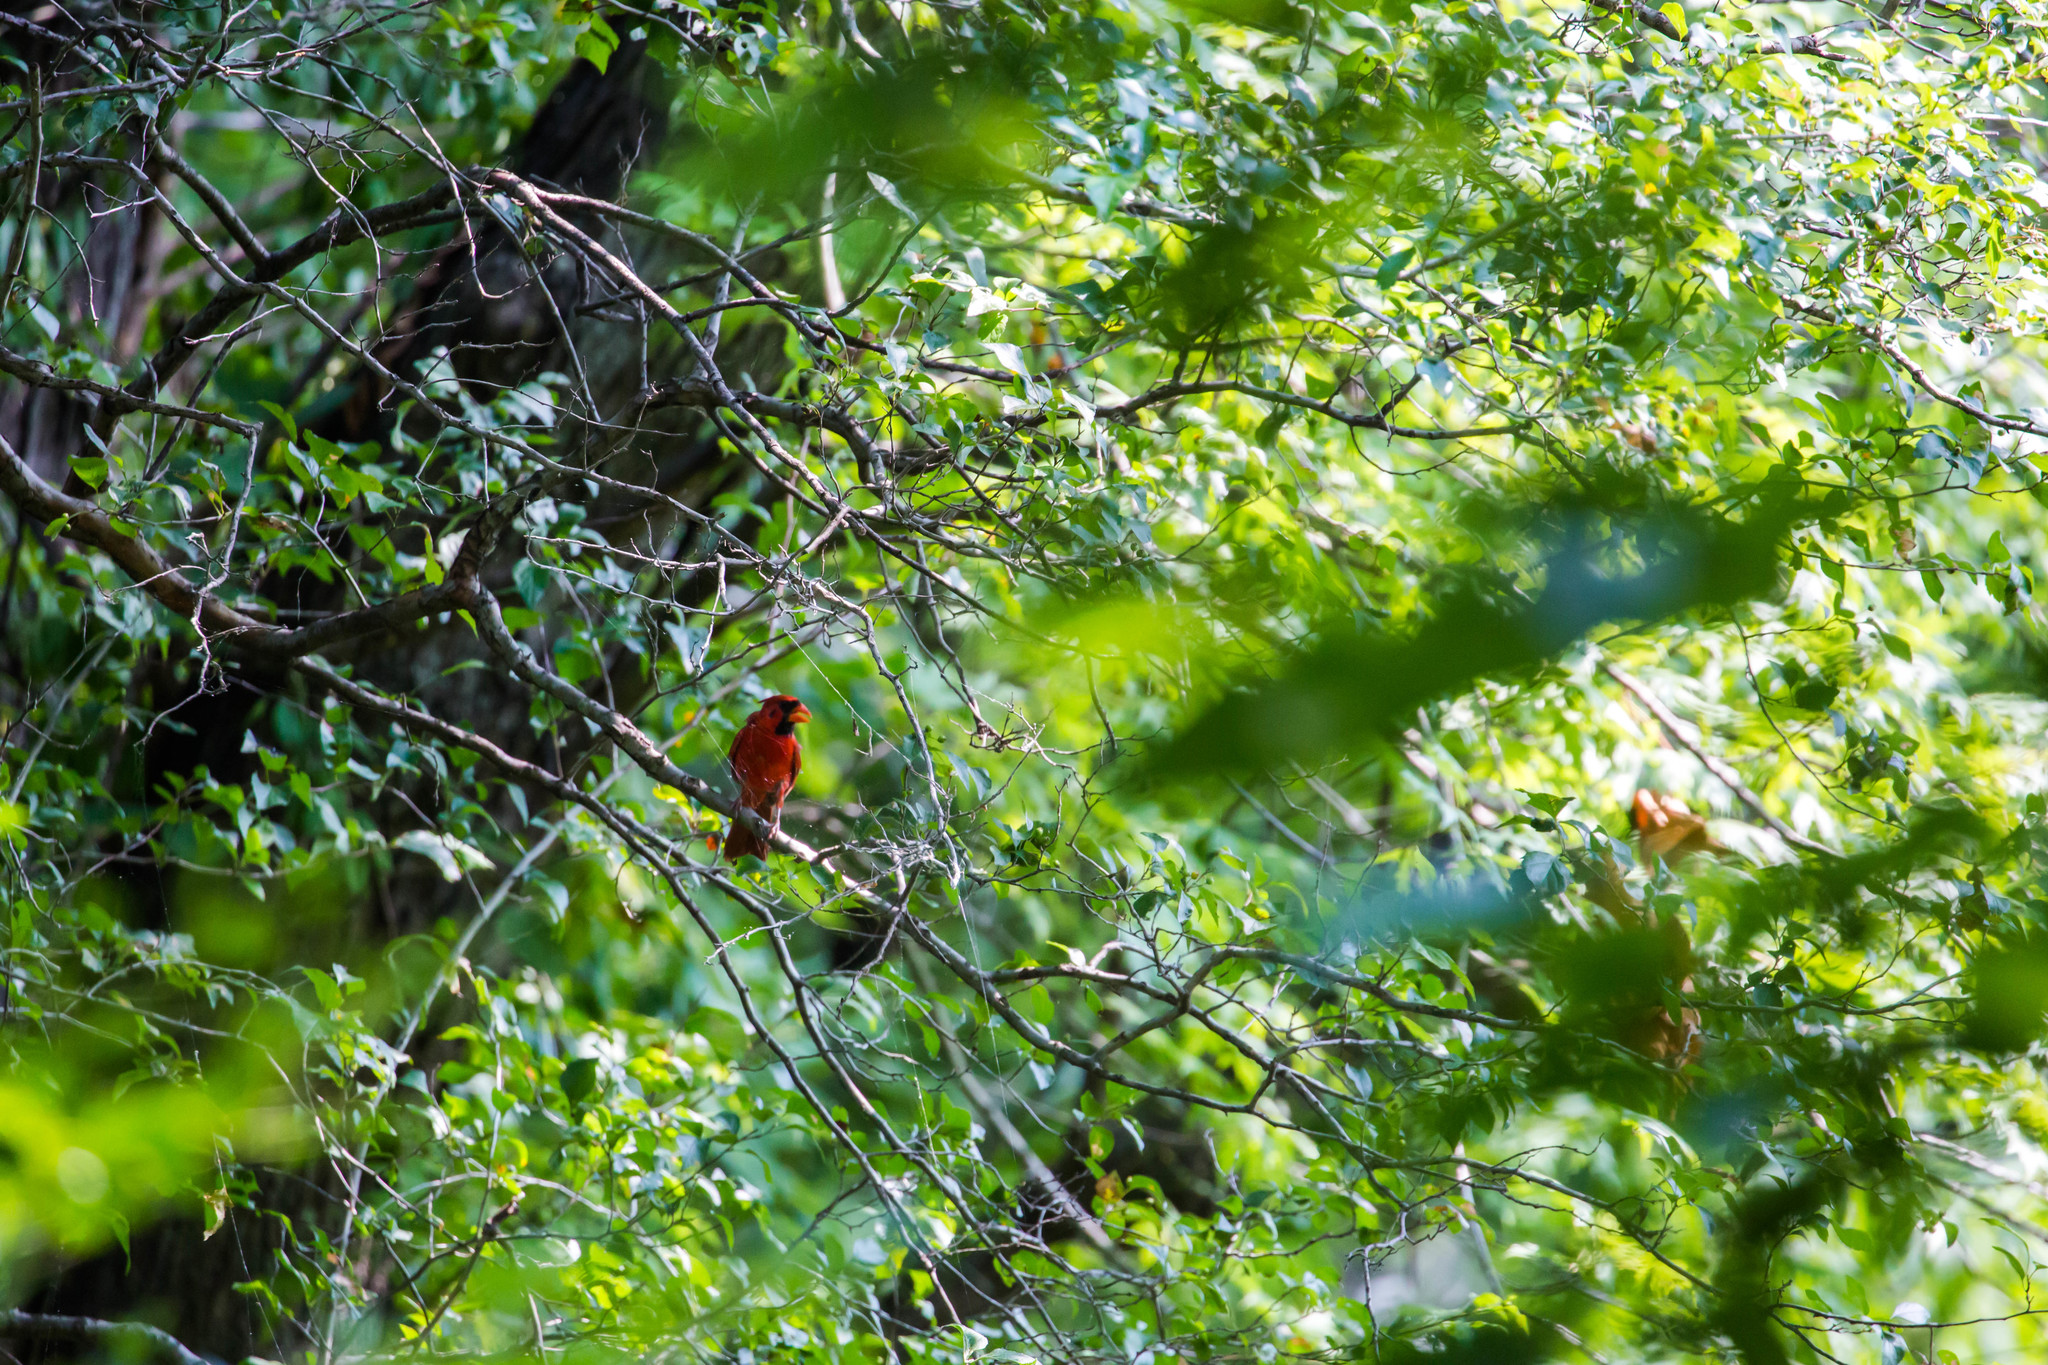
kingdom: Animalia
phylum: Chordata
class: Aves
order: Passeriformes
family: Cardinalidae
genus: Cardinalis
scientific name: Cardinalis cardinalis
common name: Northern cardinal
